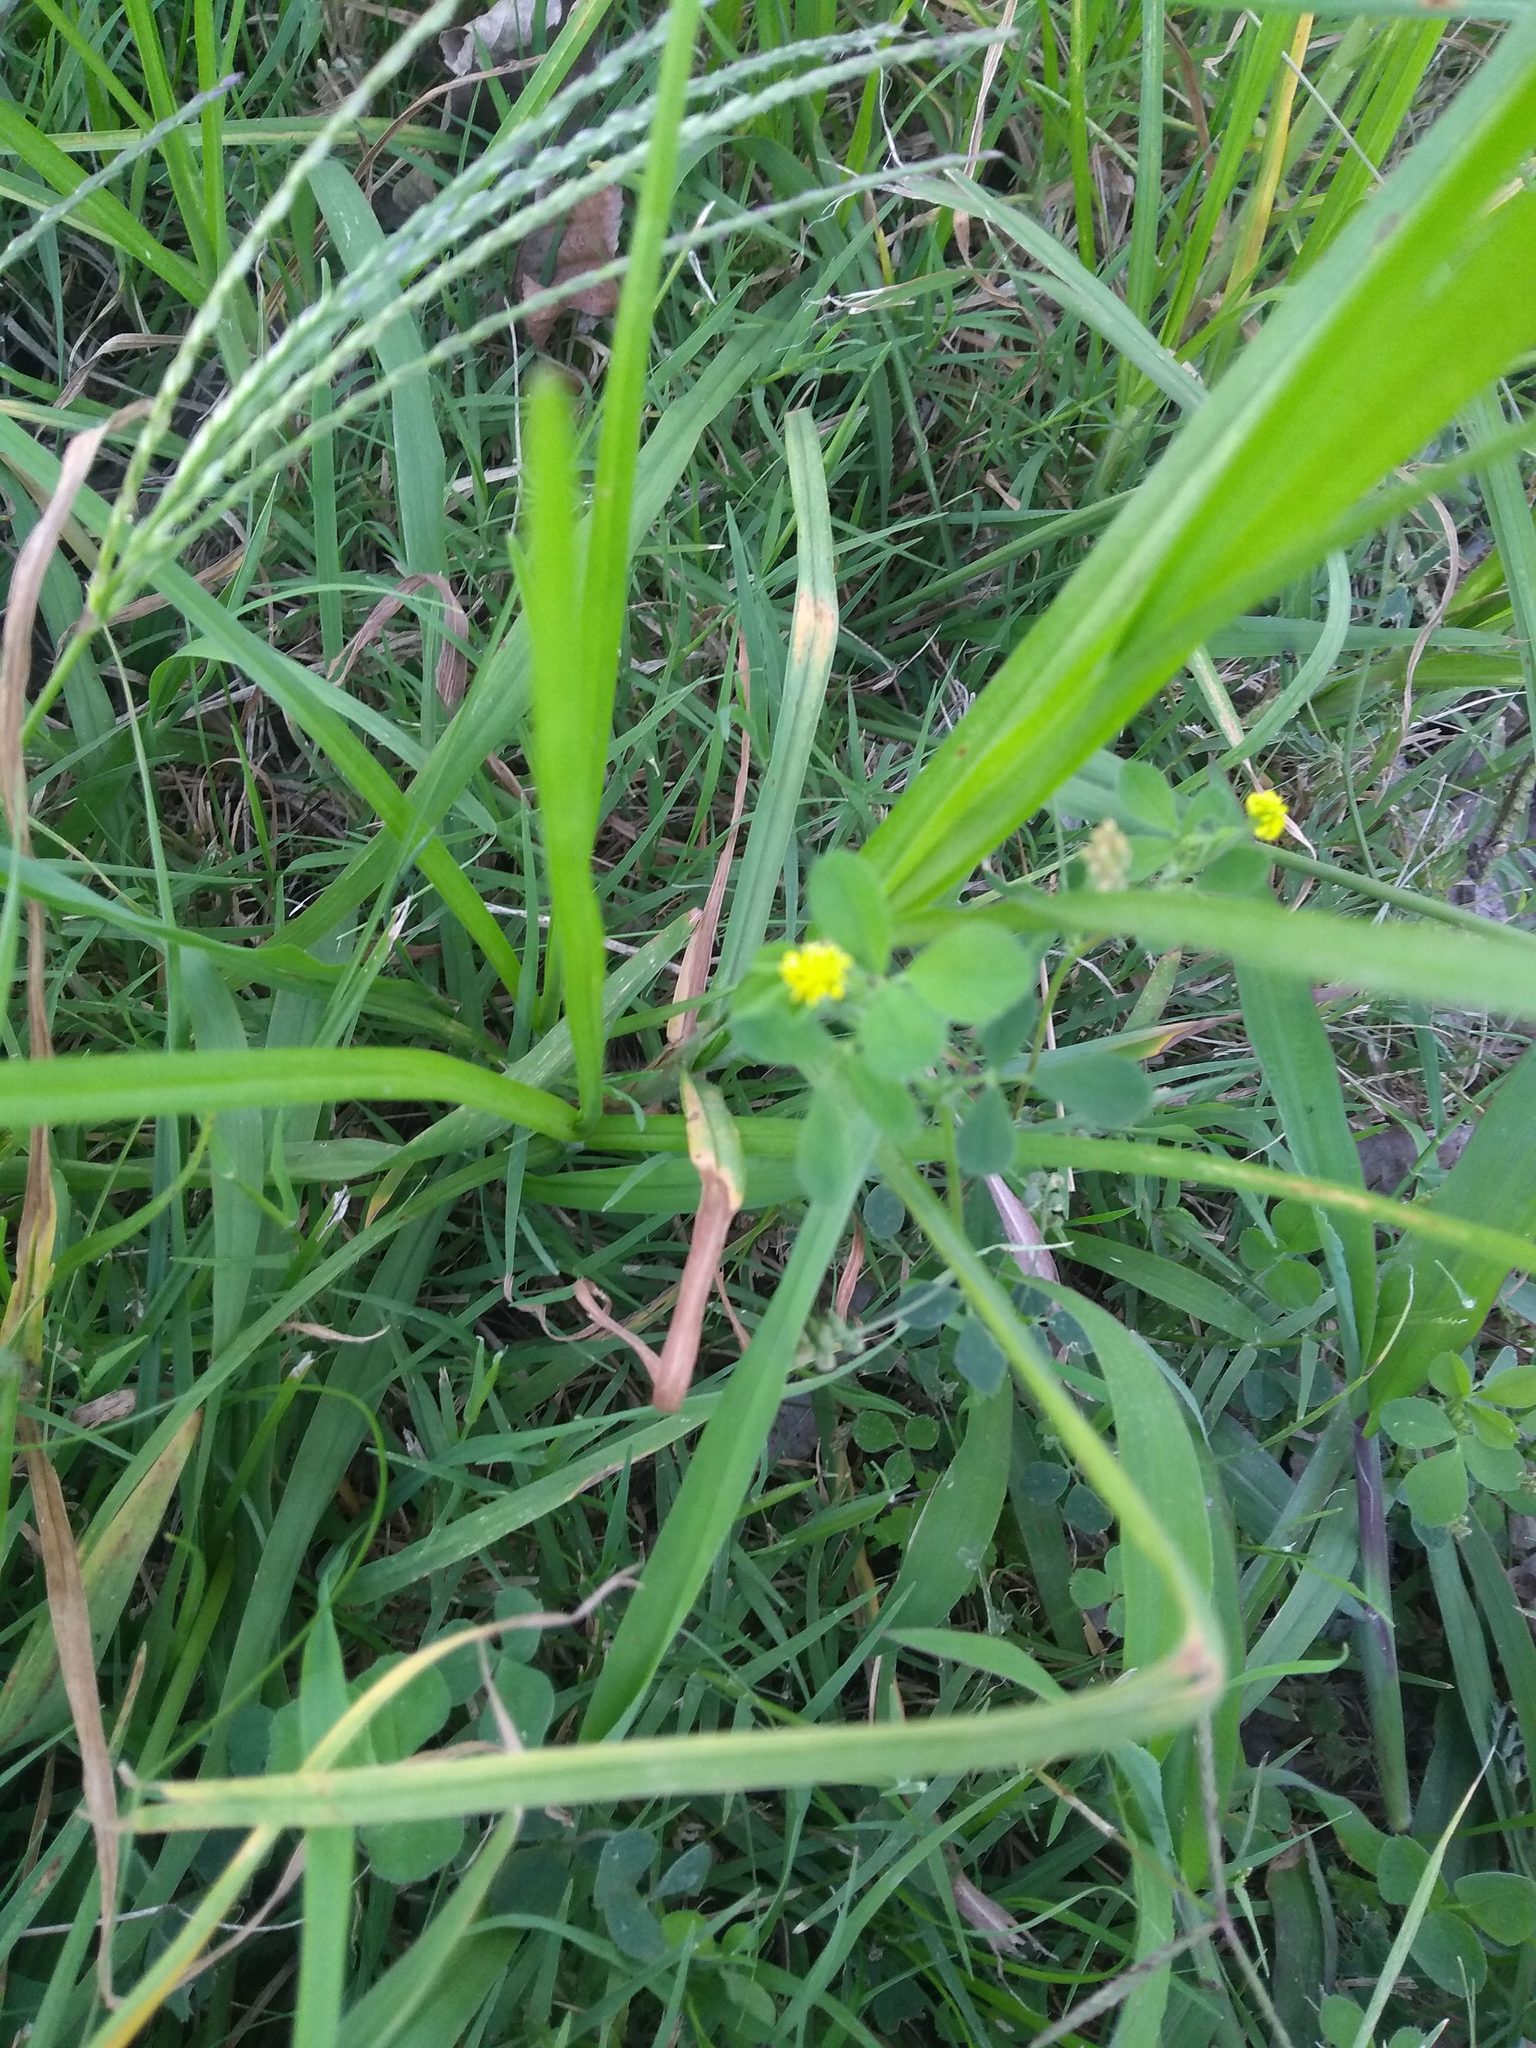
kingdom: Plantae
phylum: Tracheophyta
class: Magnoliopsida
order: Fabales
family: Fabaceae
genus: Medicago
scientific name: Medicago lupulina
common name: Black medick
